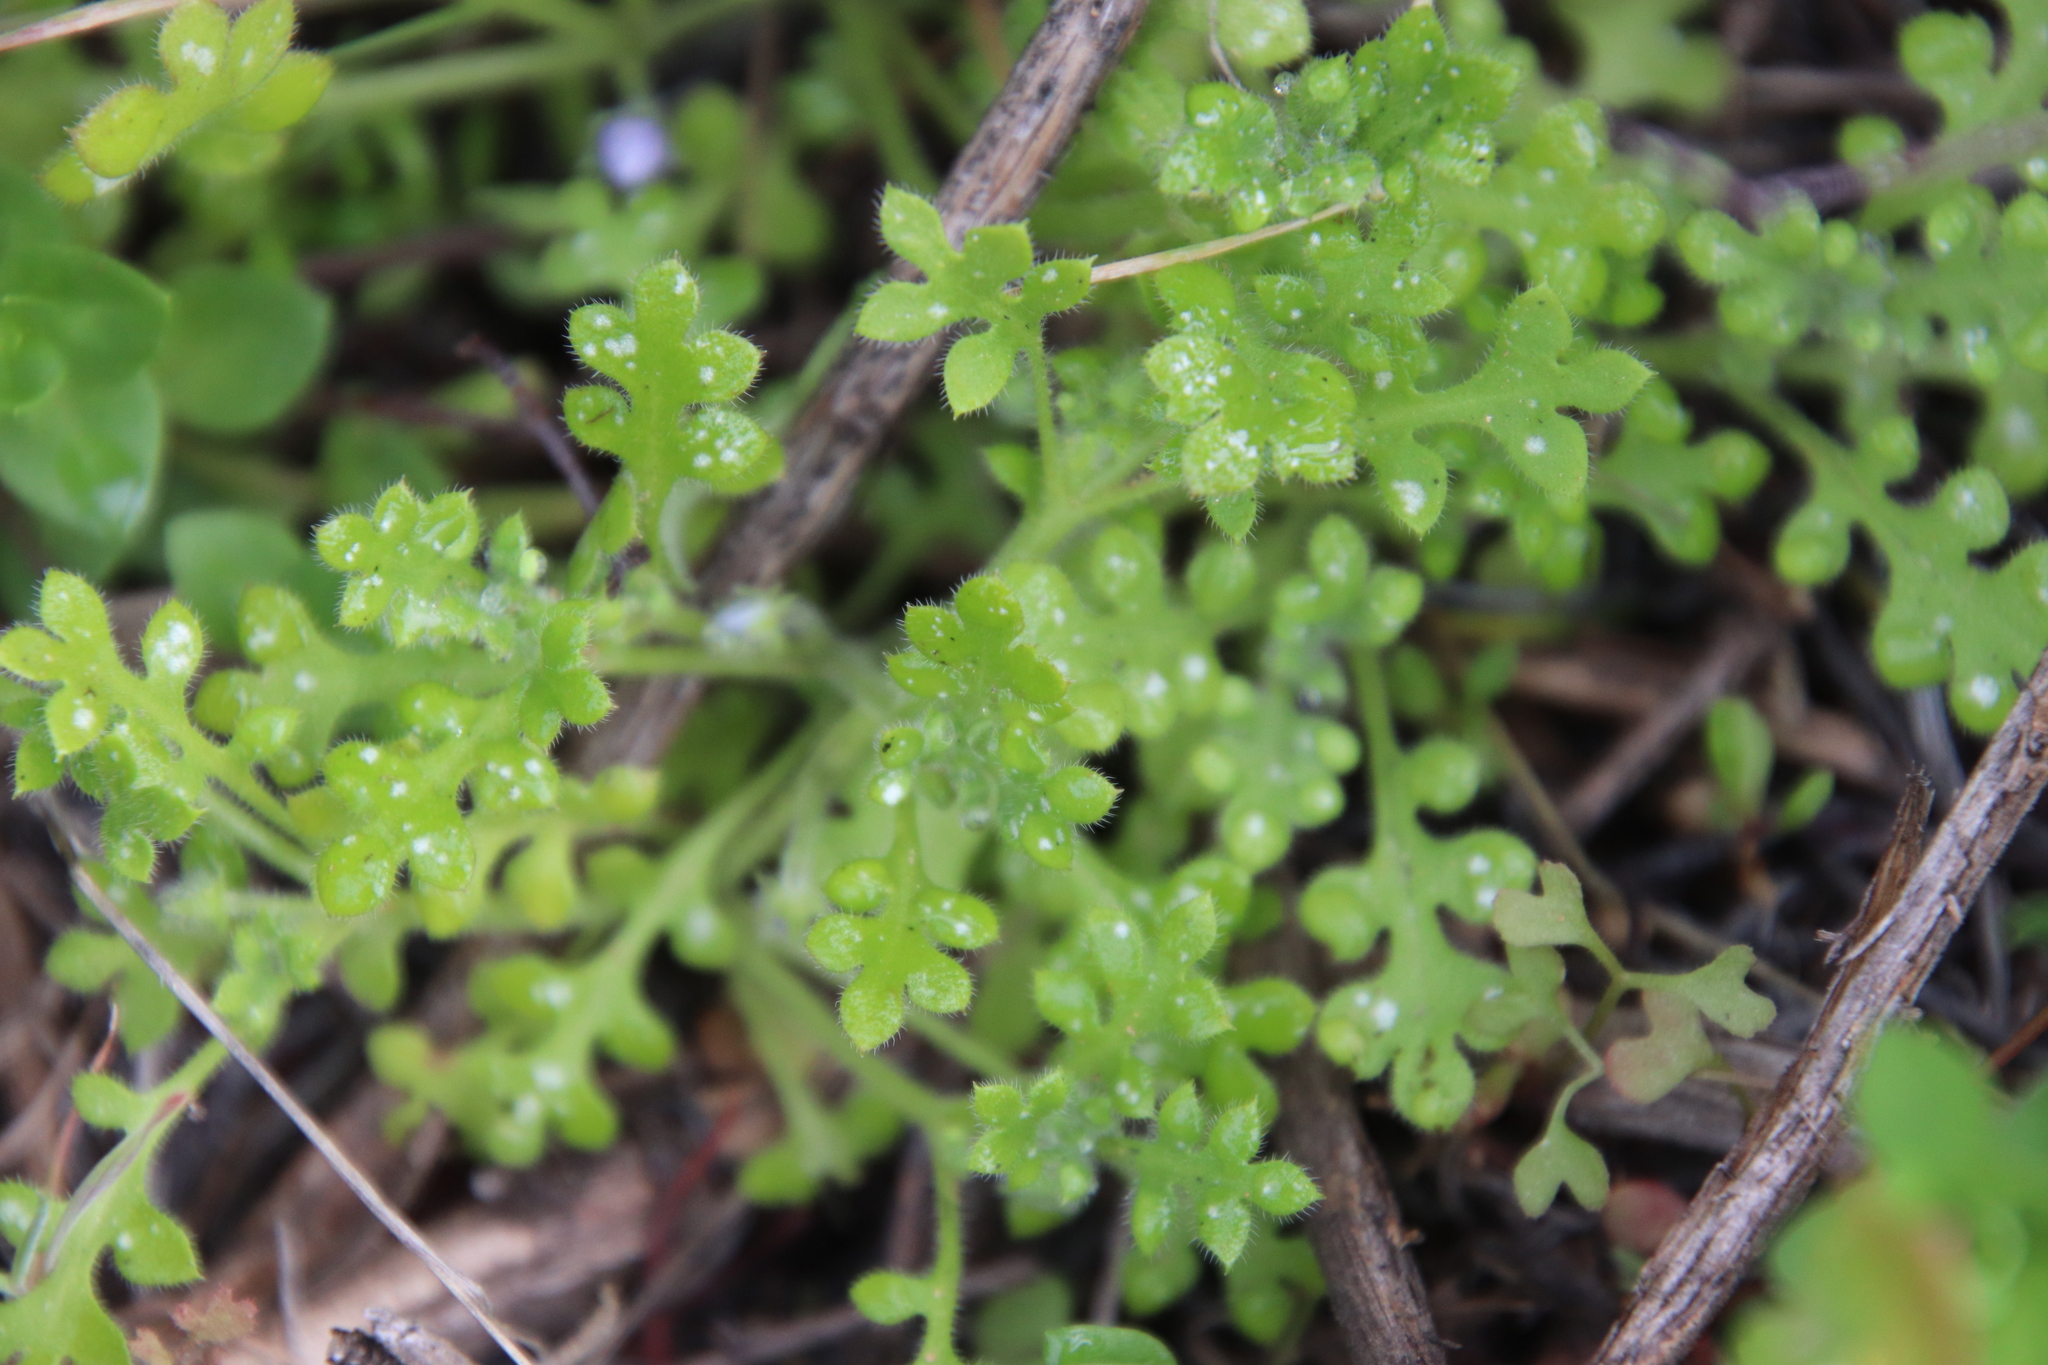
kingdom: Plantae
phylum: Tracheophyta
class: Magnoliopsida
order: Boraginales
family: Hydrophyllaceae
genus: Nemophila
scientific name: Nemophila menziesii
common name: Baby's-blue-eyes
